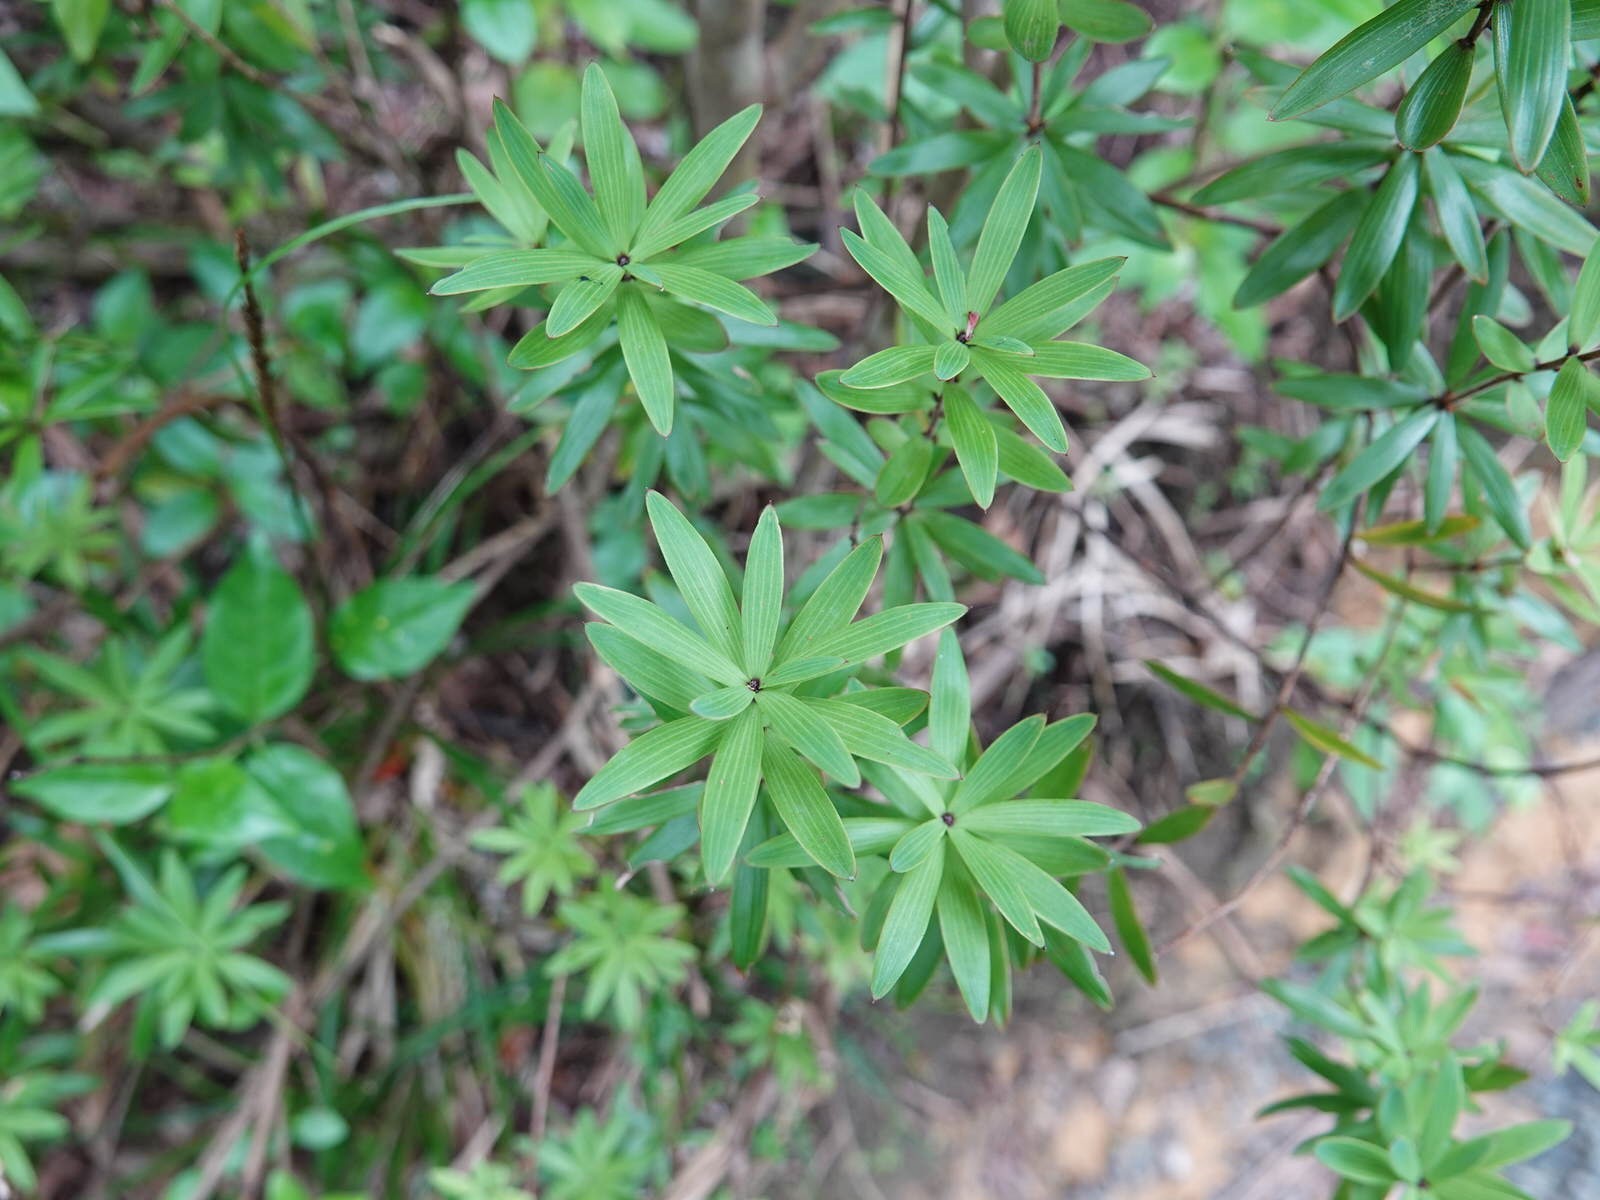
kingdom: Plantae
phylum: Tracheophyta
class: Magnoliopsida
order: Ericales
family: Ericaceae
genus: Leucopogon
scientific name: Leucopogon fasciculatus
